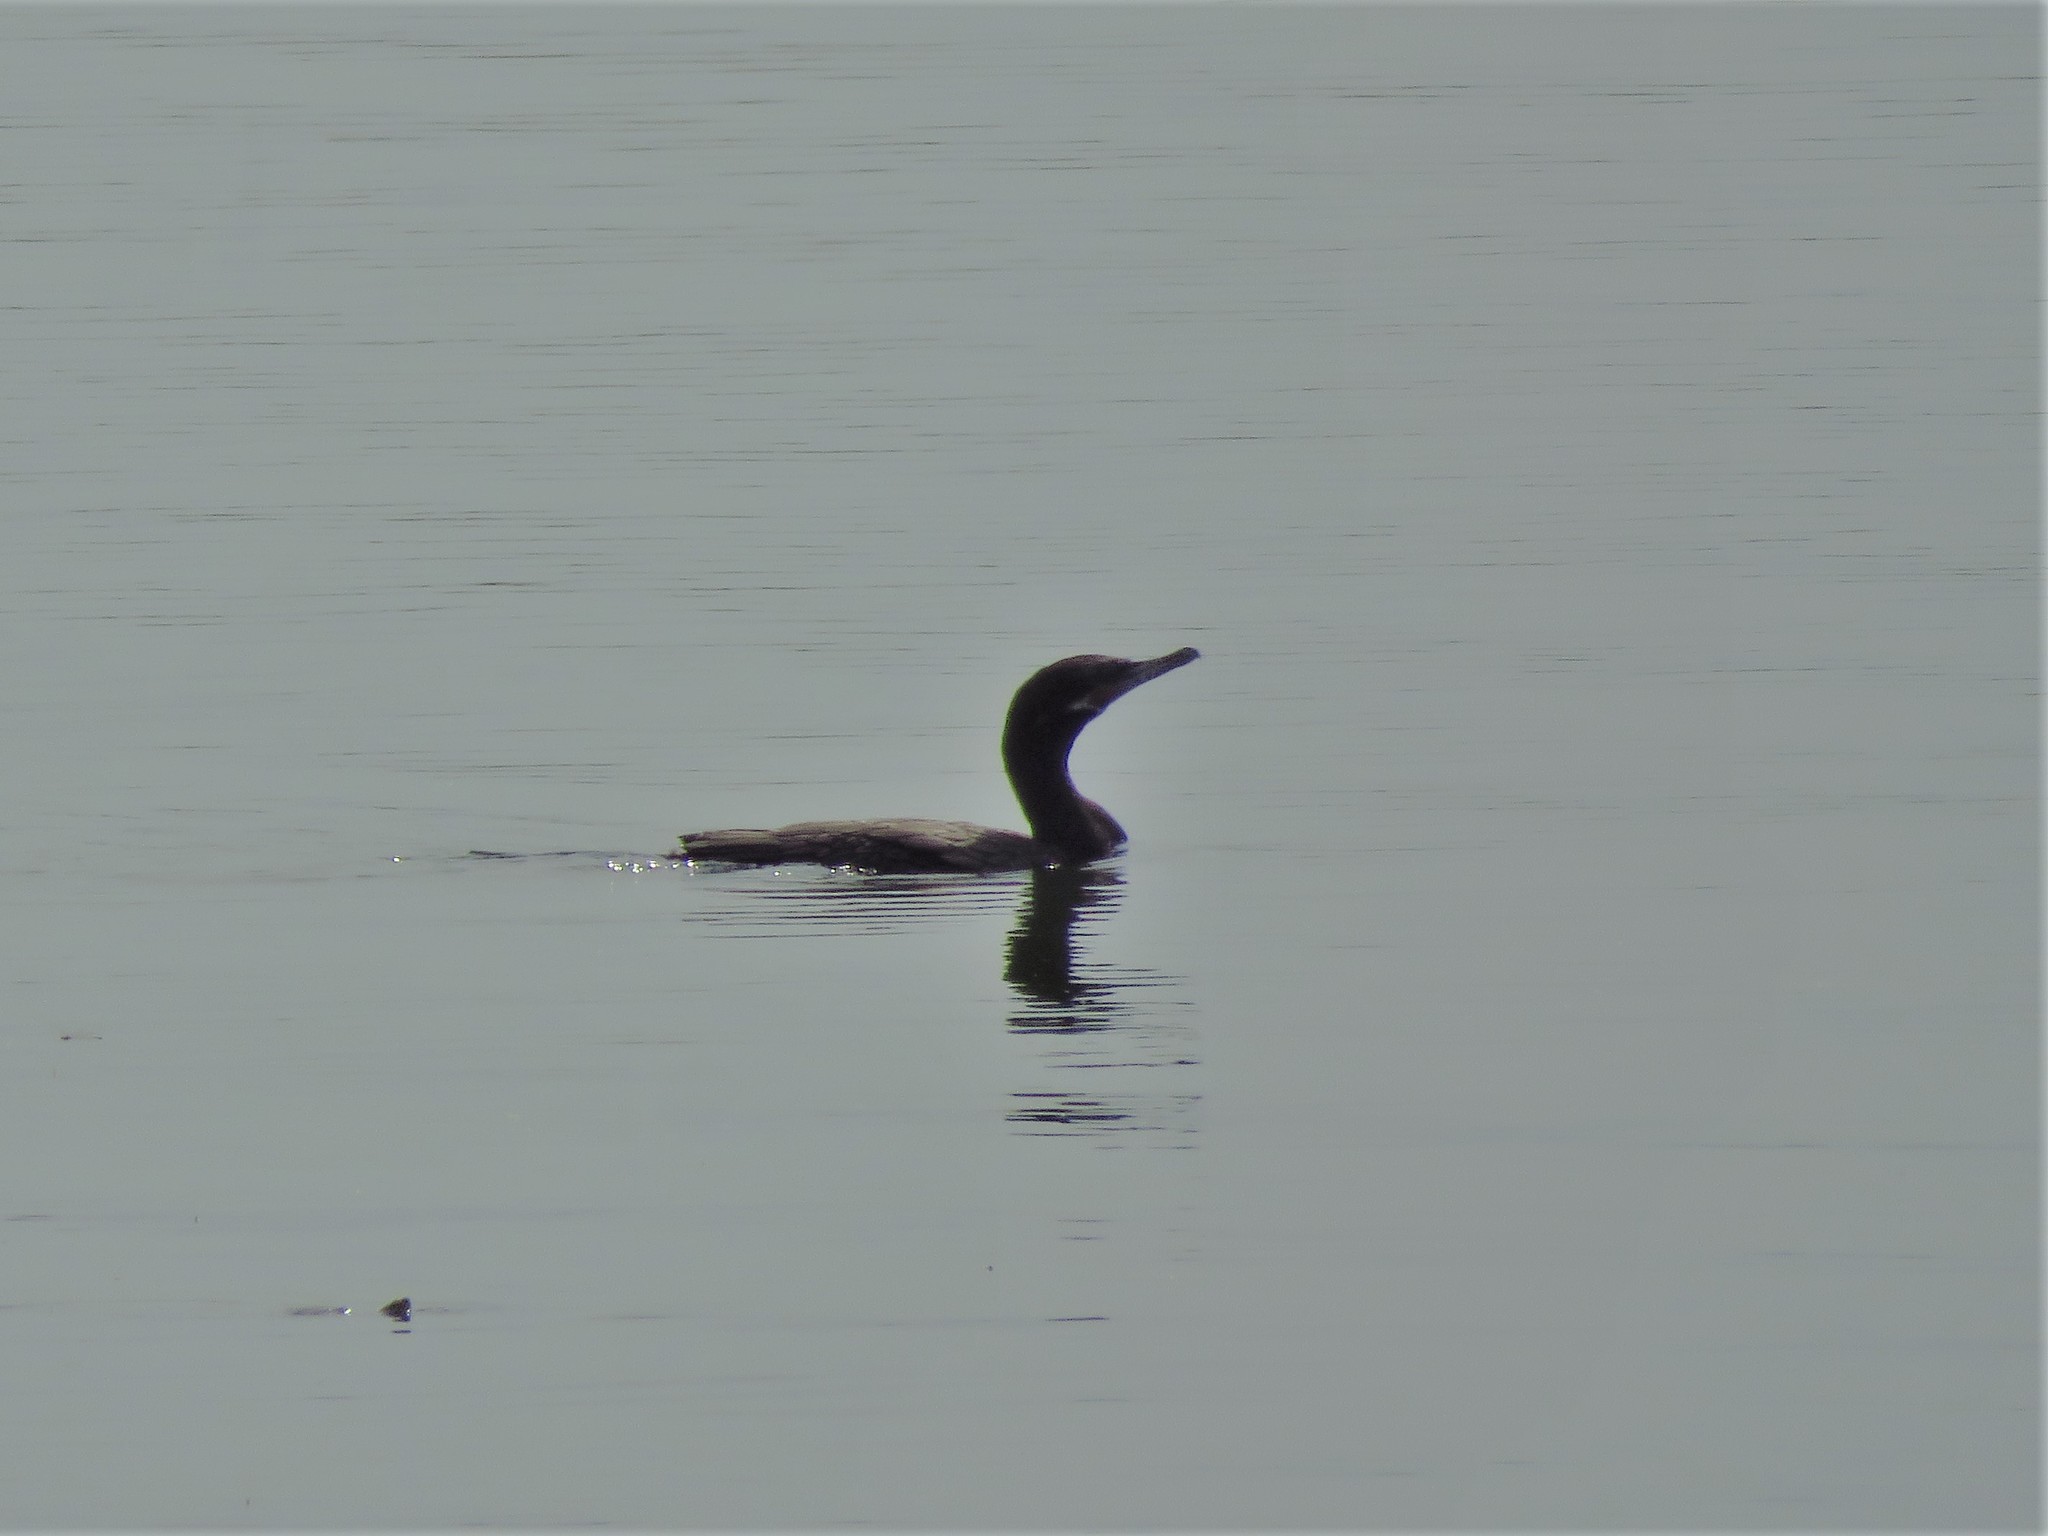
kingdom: Animalia
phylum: Chordata
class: Aves
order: Suliformes
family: Phalacrocoracidae
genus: Phalacrocorax
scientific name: Phalacrocorax brasilianus
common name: Neotropic cormorant
